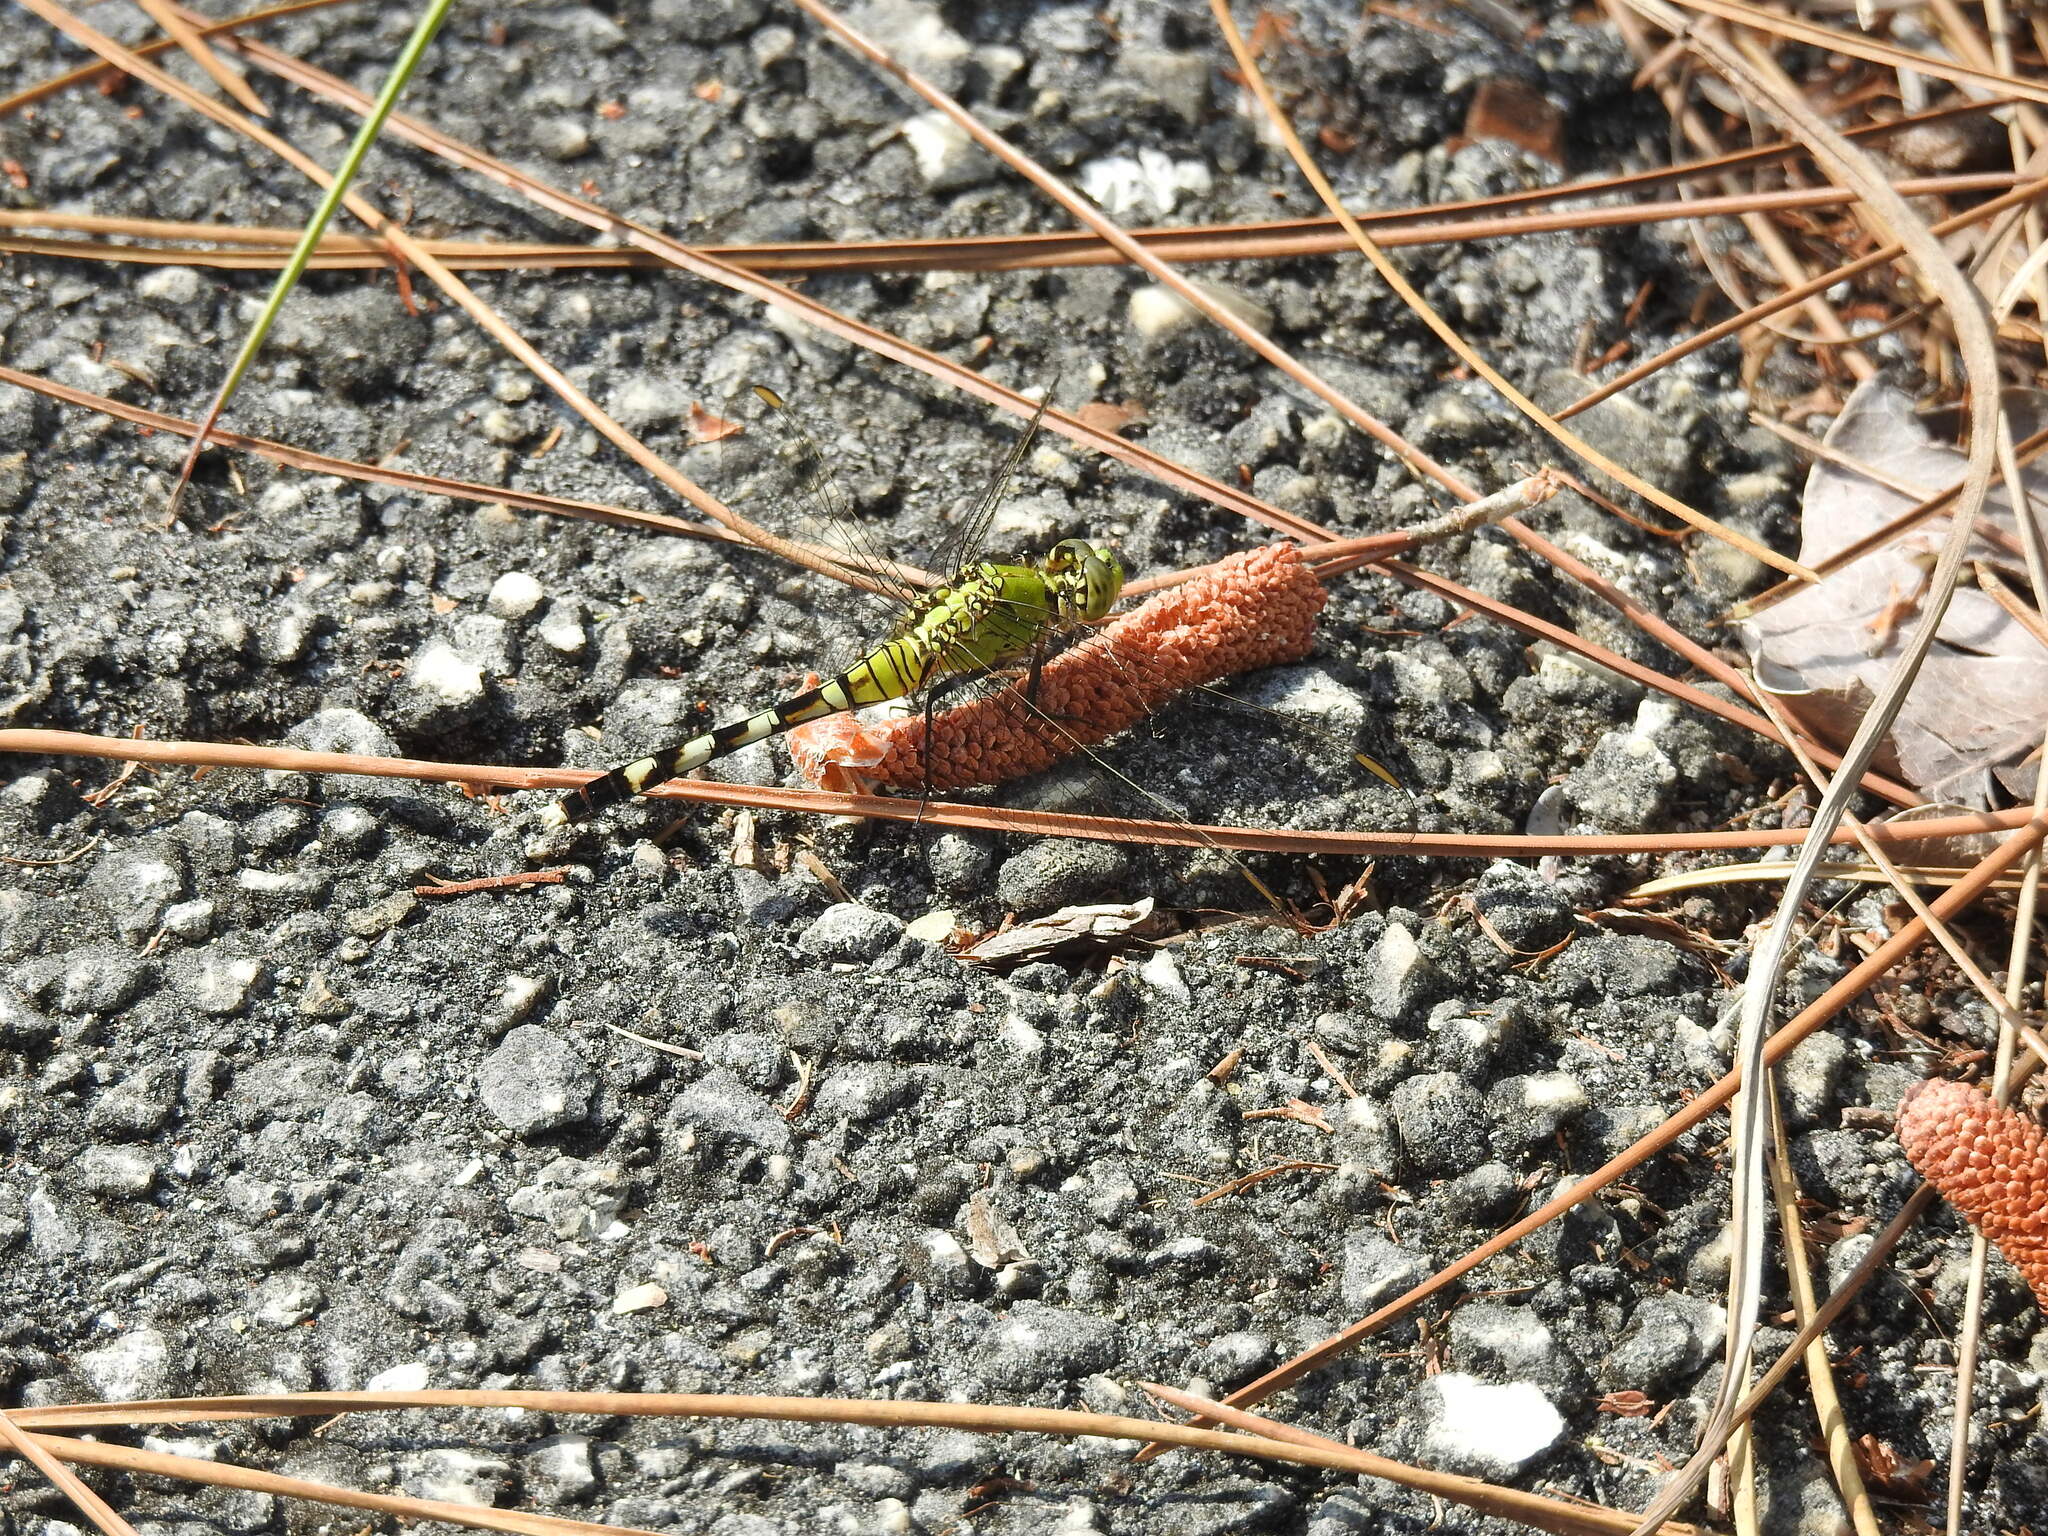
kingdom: Animalia
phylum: Arthropoda
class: Insecta
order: Odonata
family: Libellulidae
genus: Erythemis
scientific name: Erythemis simplicicollis
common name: Eastern pondhawk
